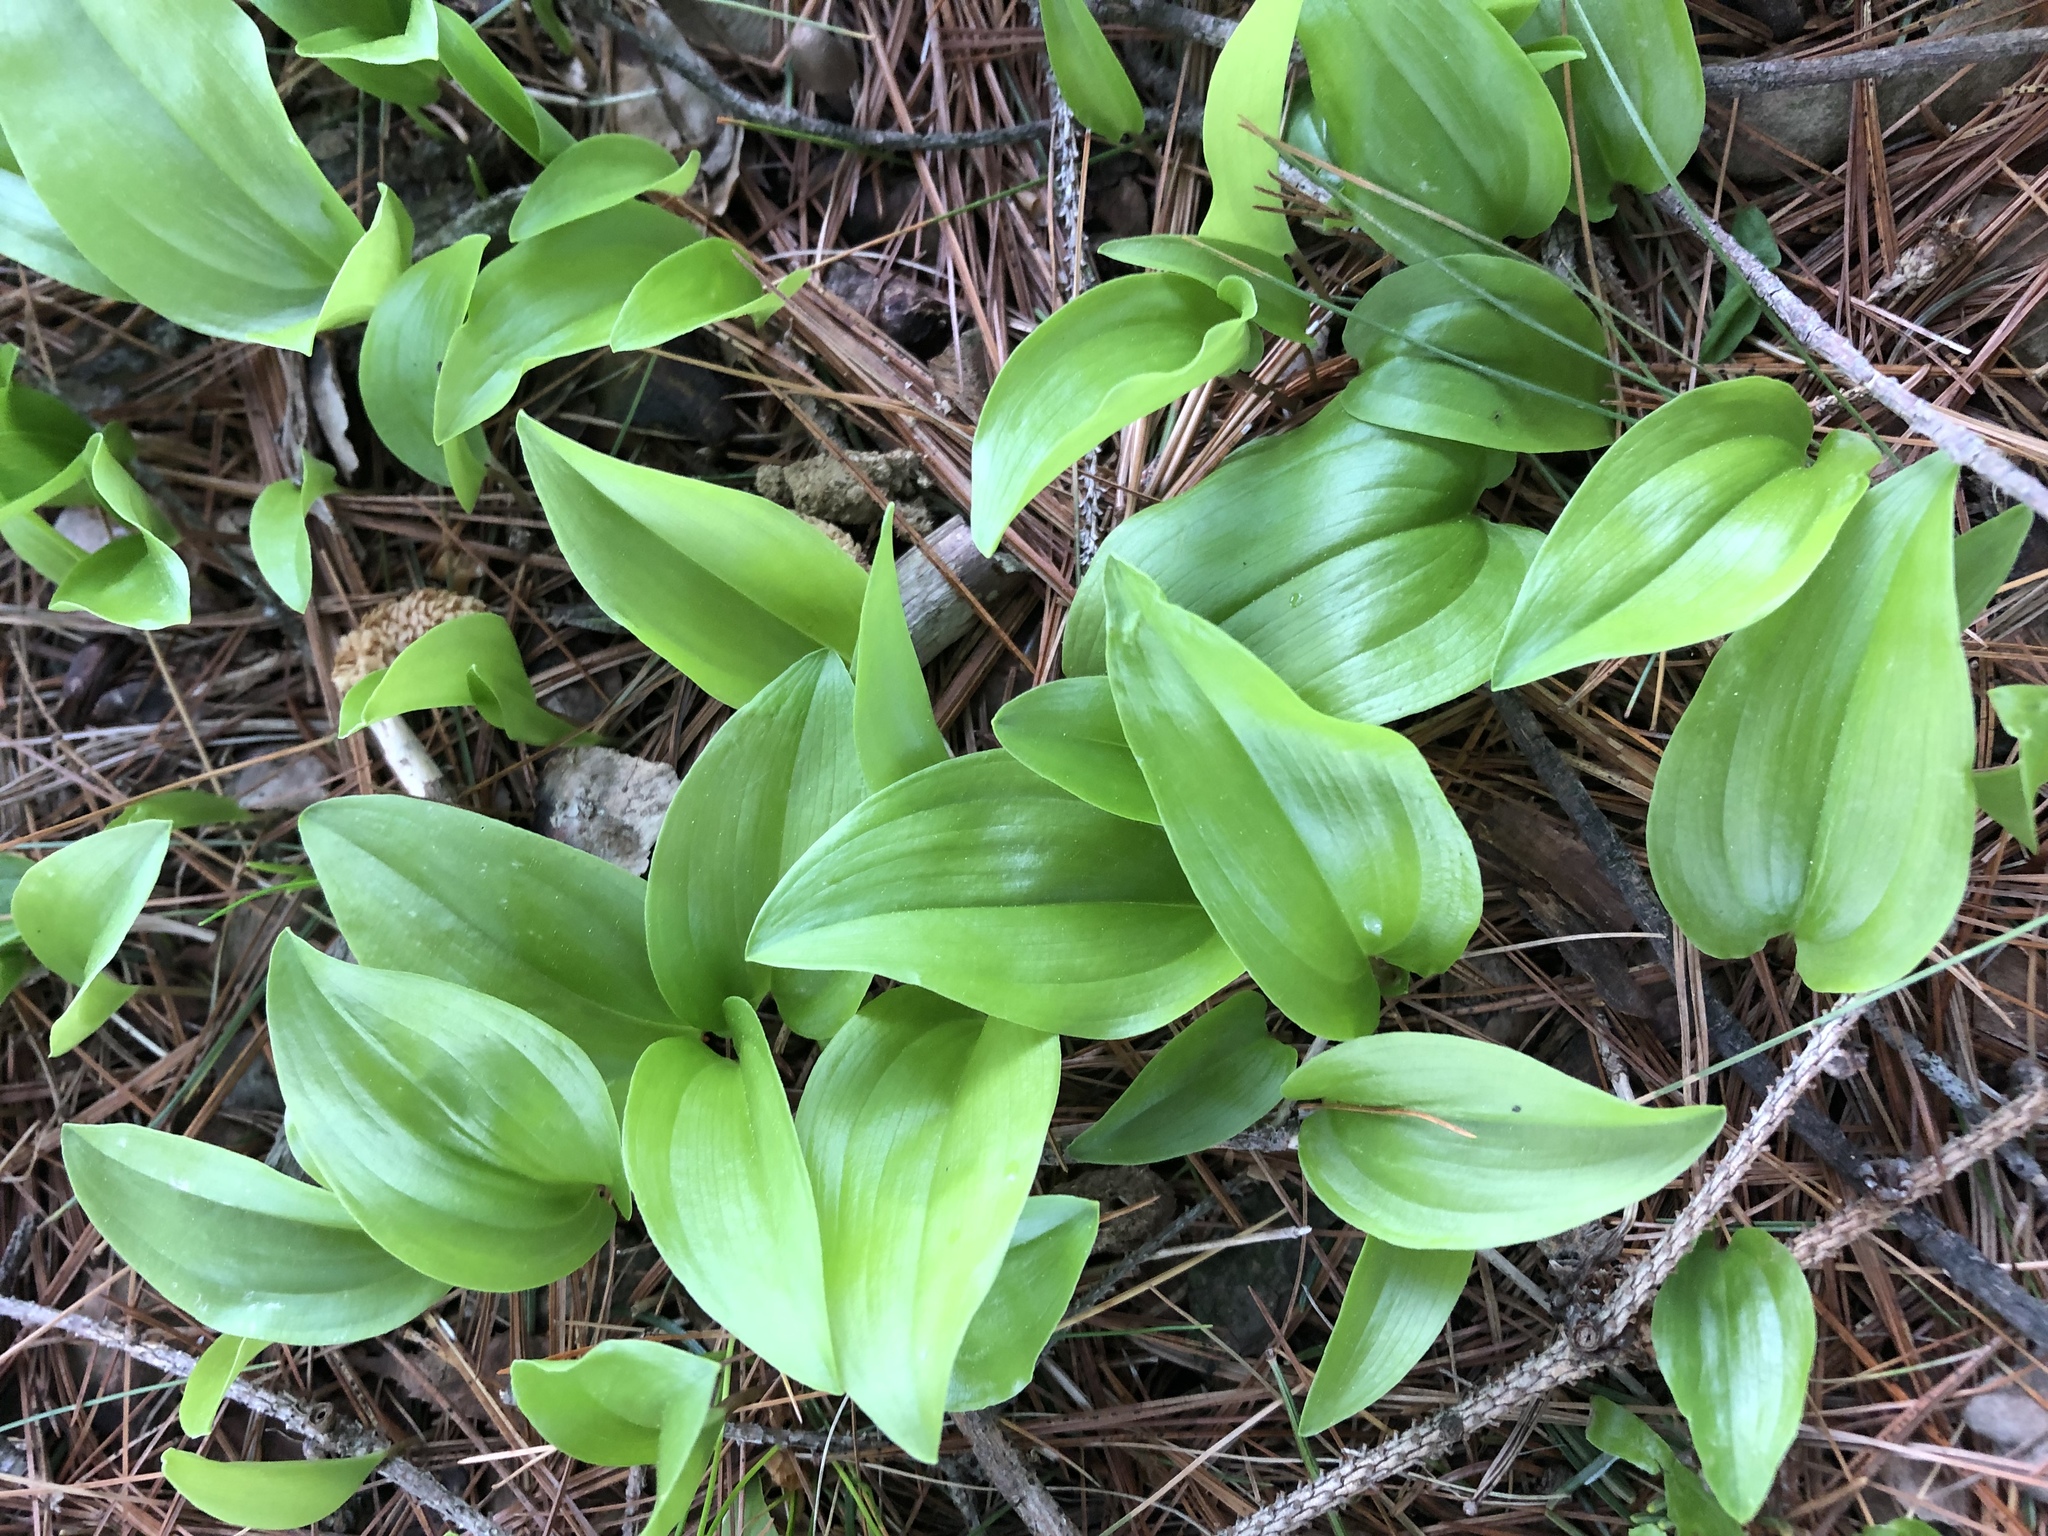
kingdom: Plantae
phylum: Tracheophyta
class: Liliopsida
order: Asparagales
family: Asparagaceae
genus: Maianthemum
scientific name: Maianthemum canadense
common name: False lily-of-the-valley
